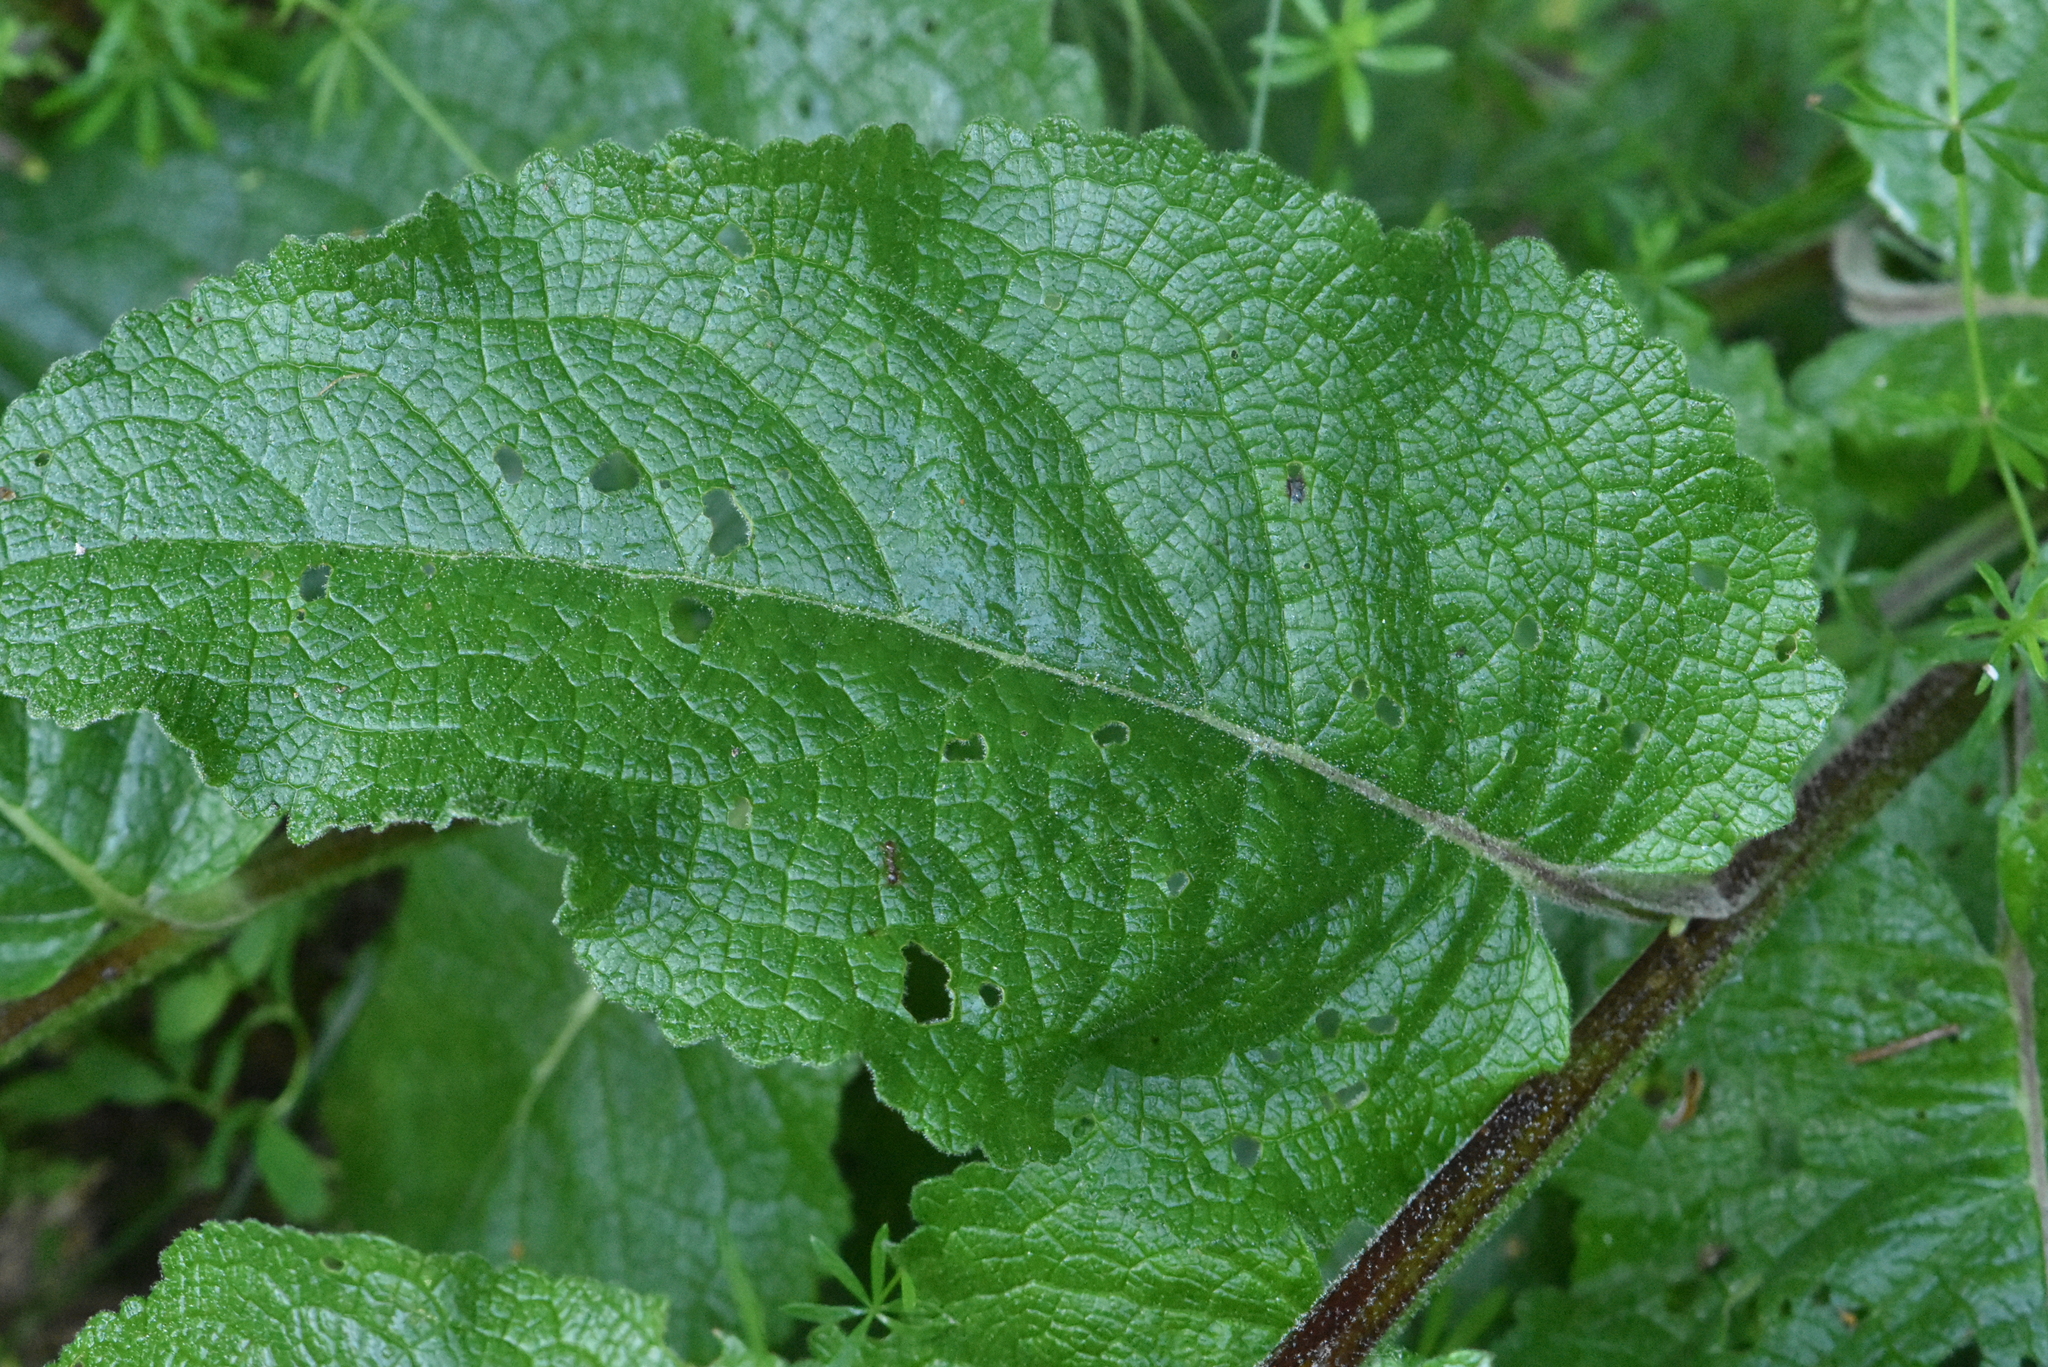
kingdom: Plantae
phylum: Tracheophyta
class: Magnoliopsida
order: Lamiales
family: Scrophulariaceae
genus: Verbascum
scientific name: Verbascum nigrum
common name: Dark mullein
